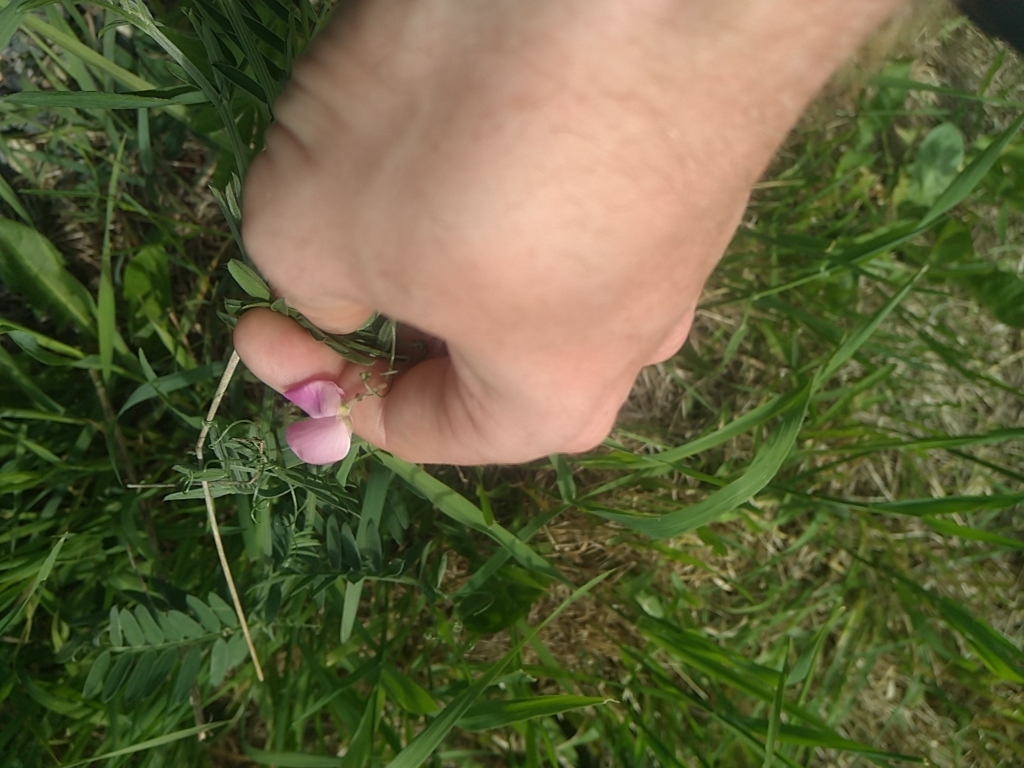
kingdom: Plantae
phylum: Tracheophyta
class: Magnoliopsida
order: Fabales
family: Fabaceae
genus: Vicia
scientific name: Vicia cracca
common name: Bird vetch
